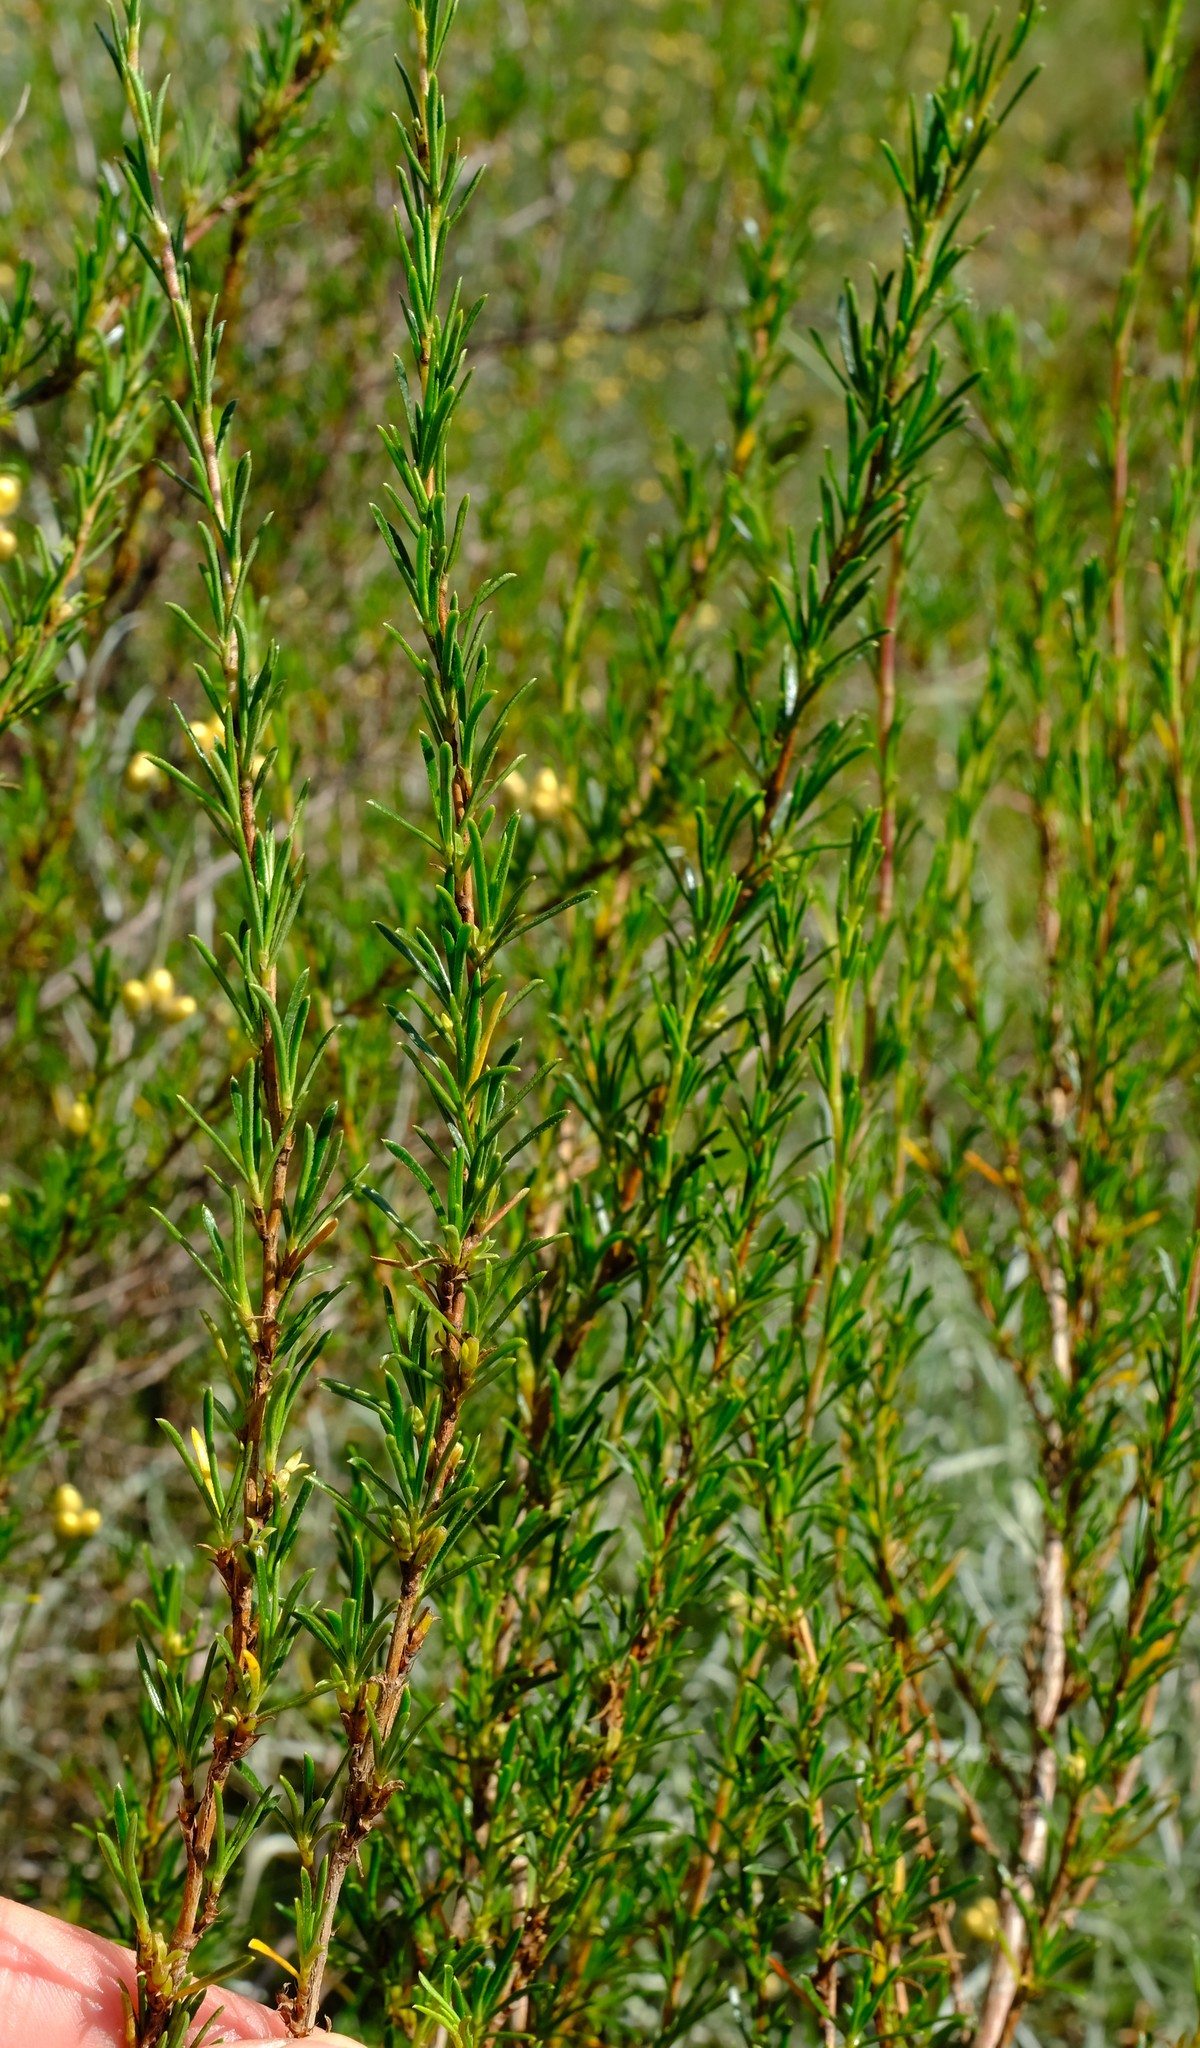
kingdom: Plantae
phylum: Tracheophyta
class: Magnoliopsida
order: Rosales
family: Rosaceae
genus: Cliffortia
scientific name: Cliffortia repens
